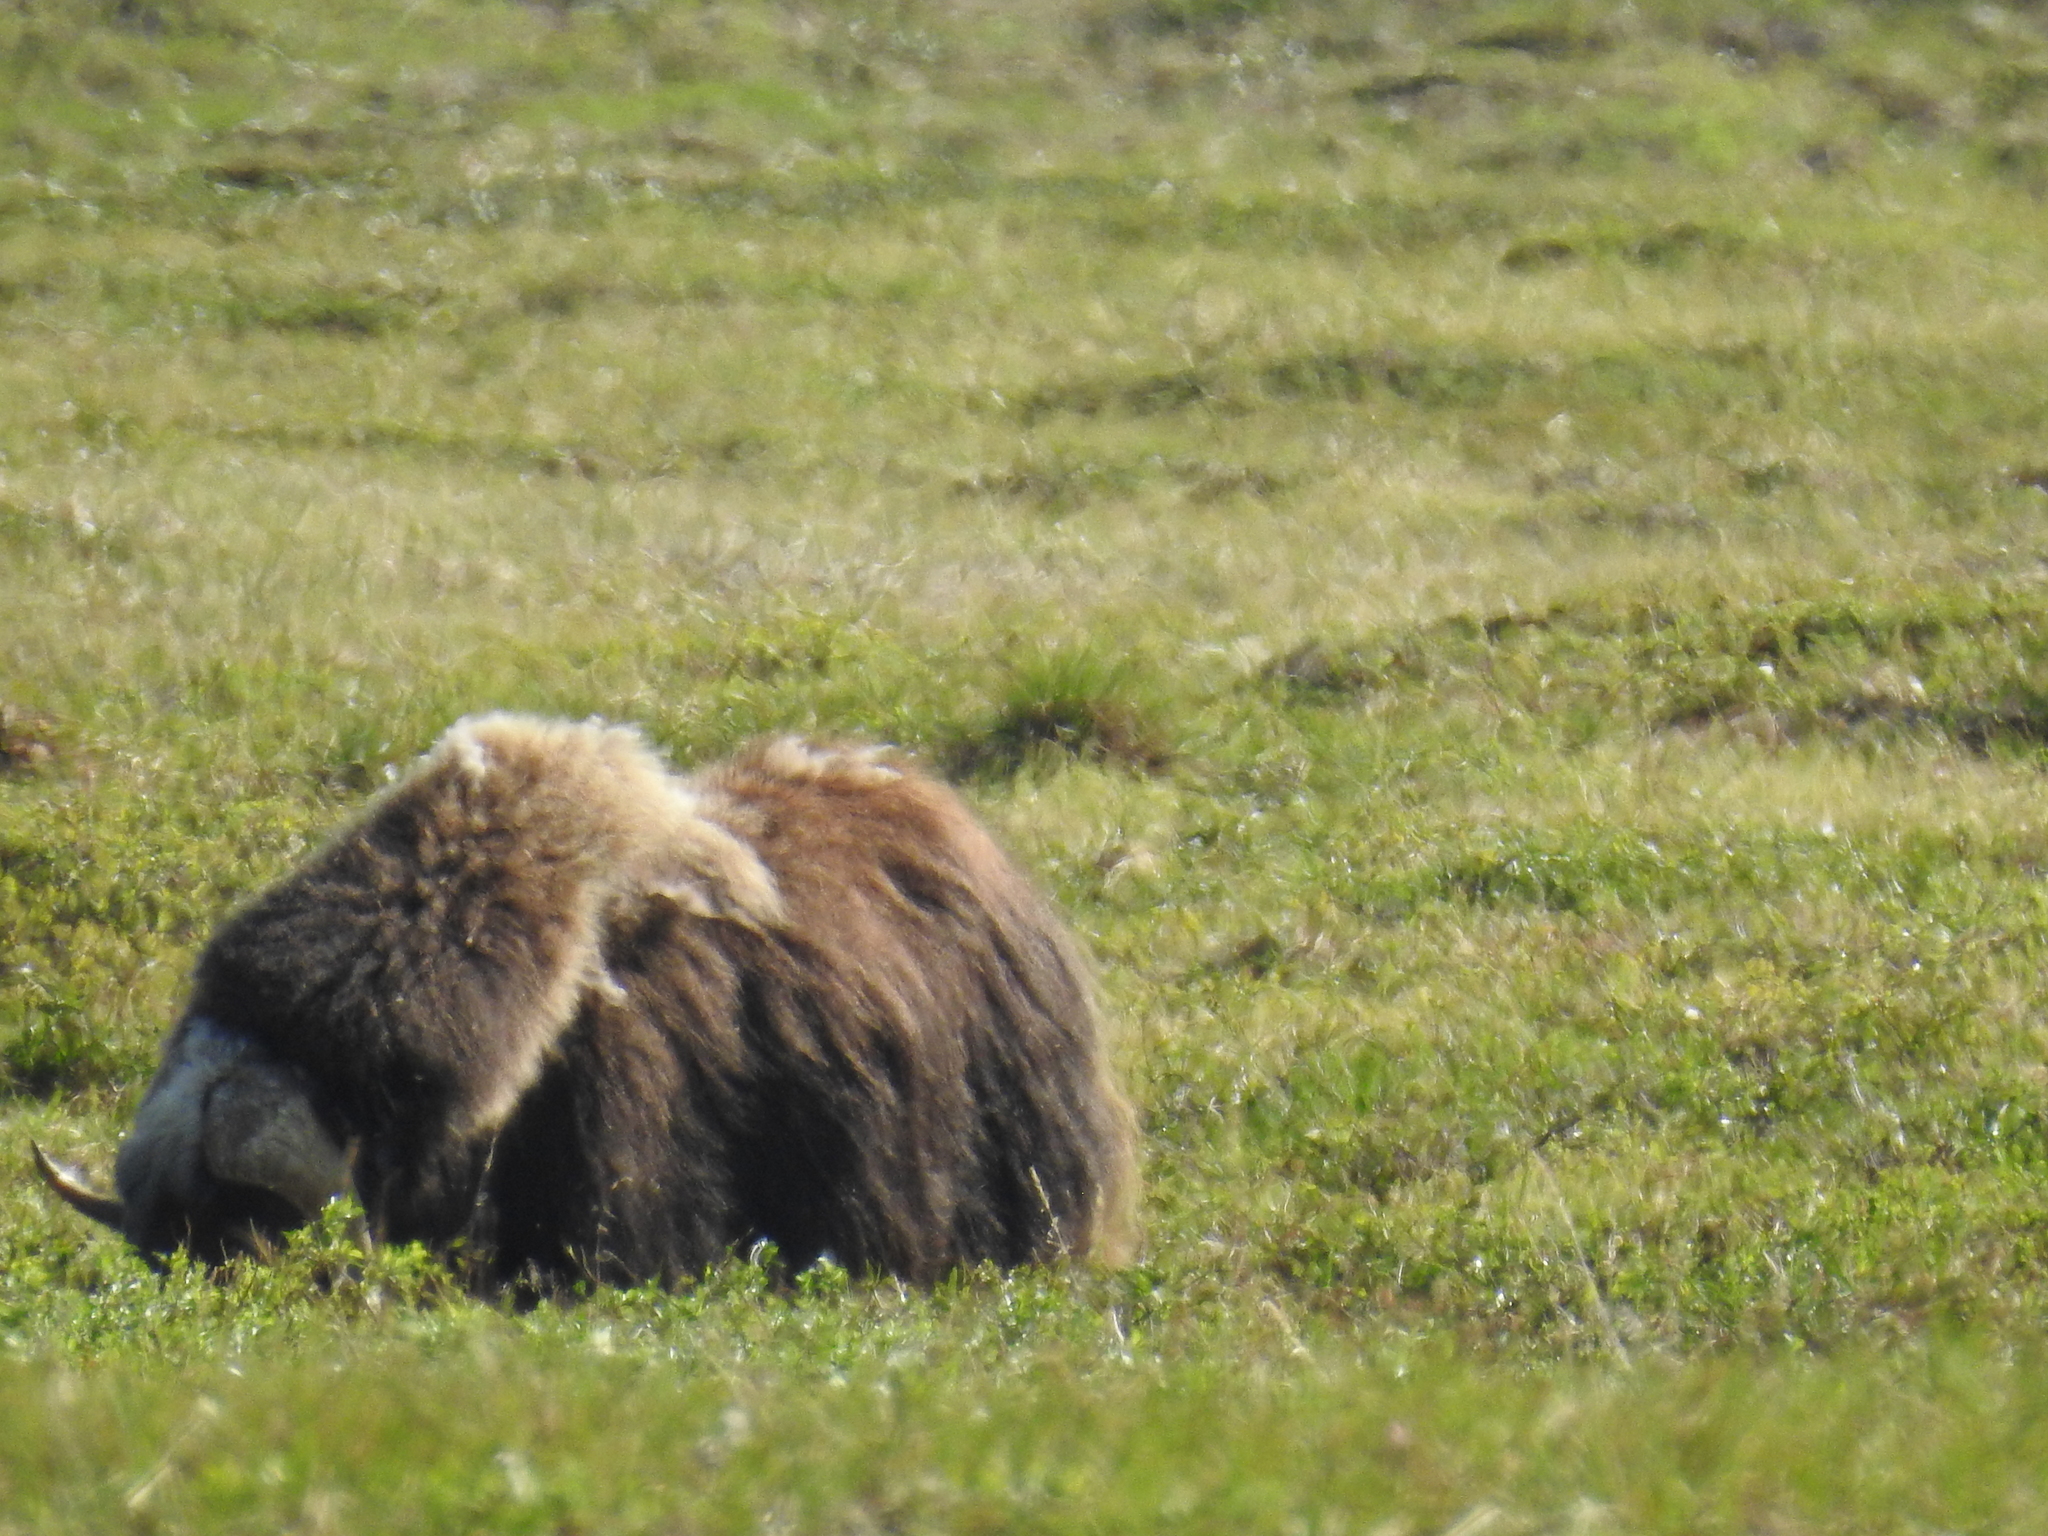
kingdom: Animalia
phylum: Chordata
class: Mammalia
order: Artiodactyla
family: Bovidae
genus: Ovibos
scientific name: Ovibos moschatus
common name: Muskox
